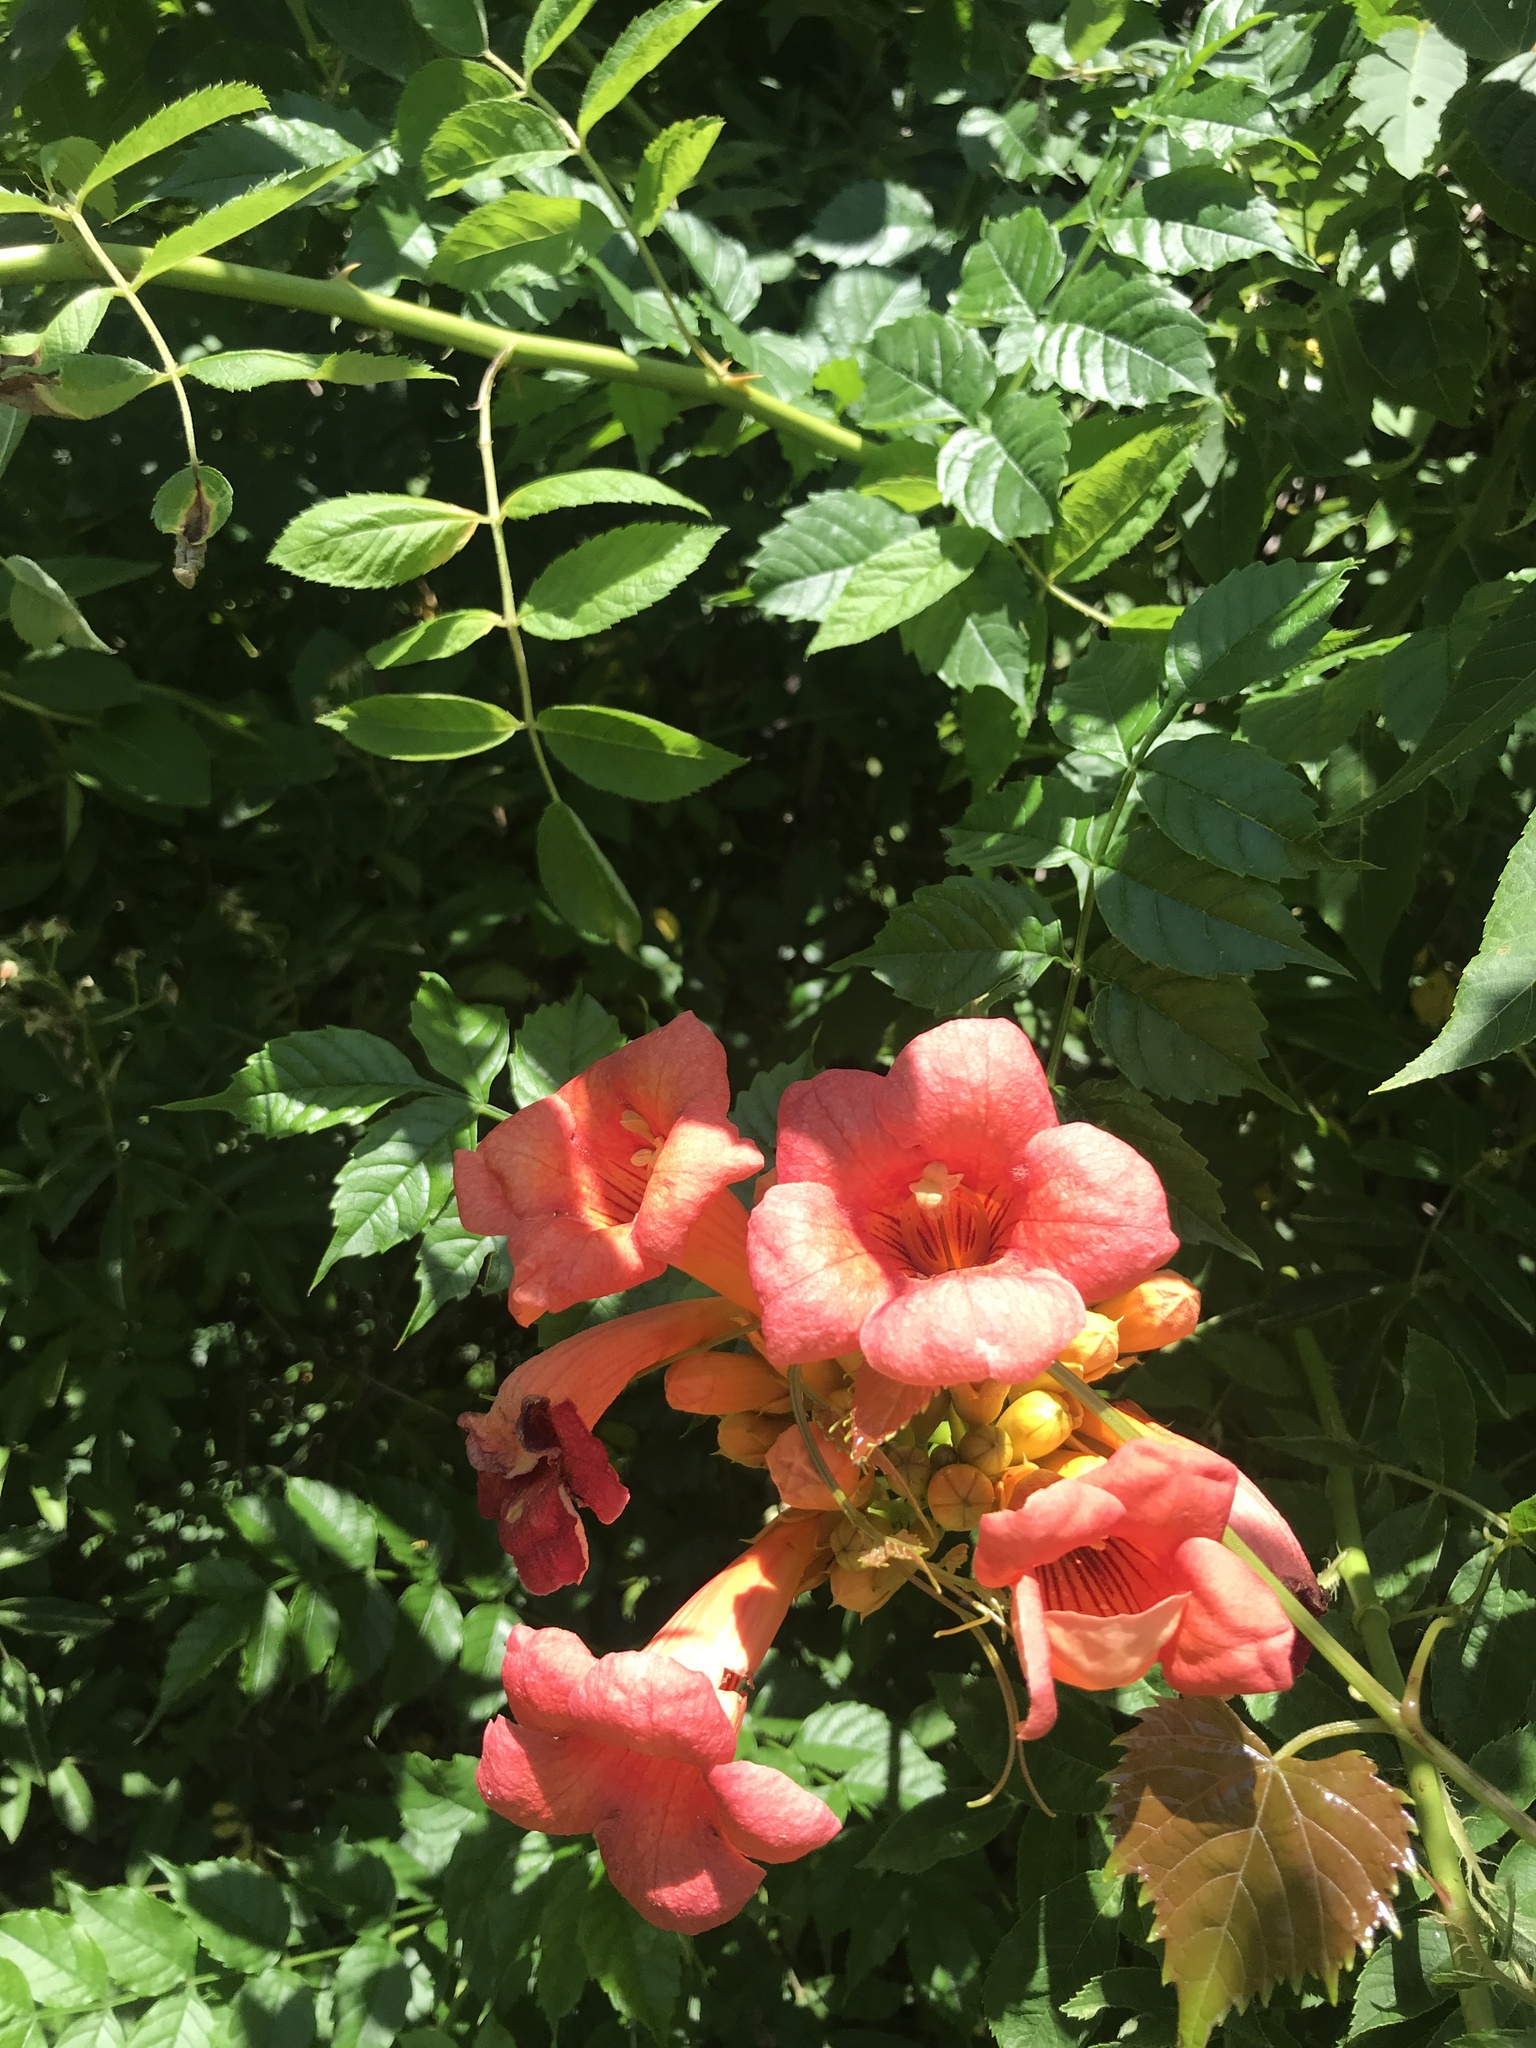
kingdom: Plantae
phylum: Tracheophyta
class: Magnoliopsida
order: Lamiales
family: Bignoniaceae
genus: Campsis
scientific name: Campsis radicans
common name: Trumpet-creeper
